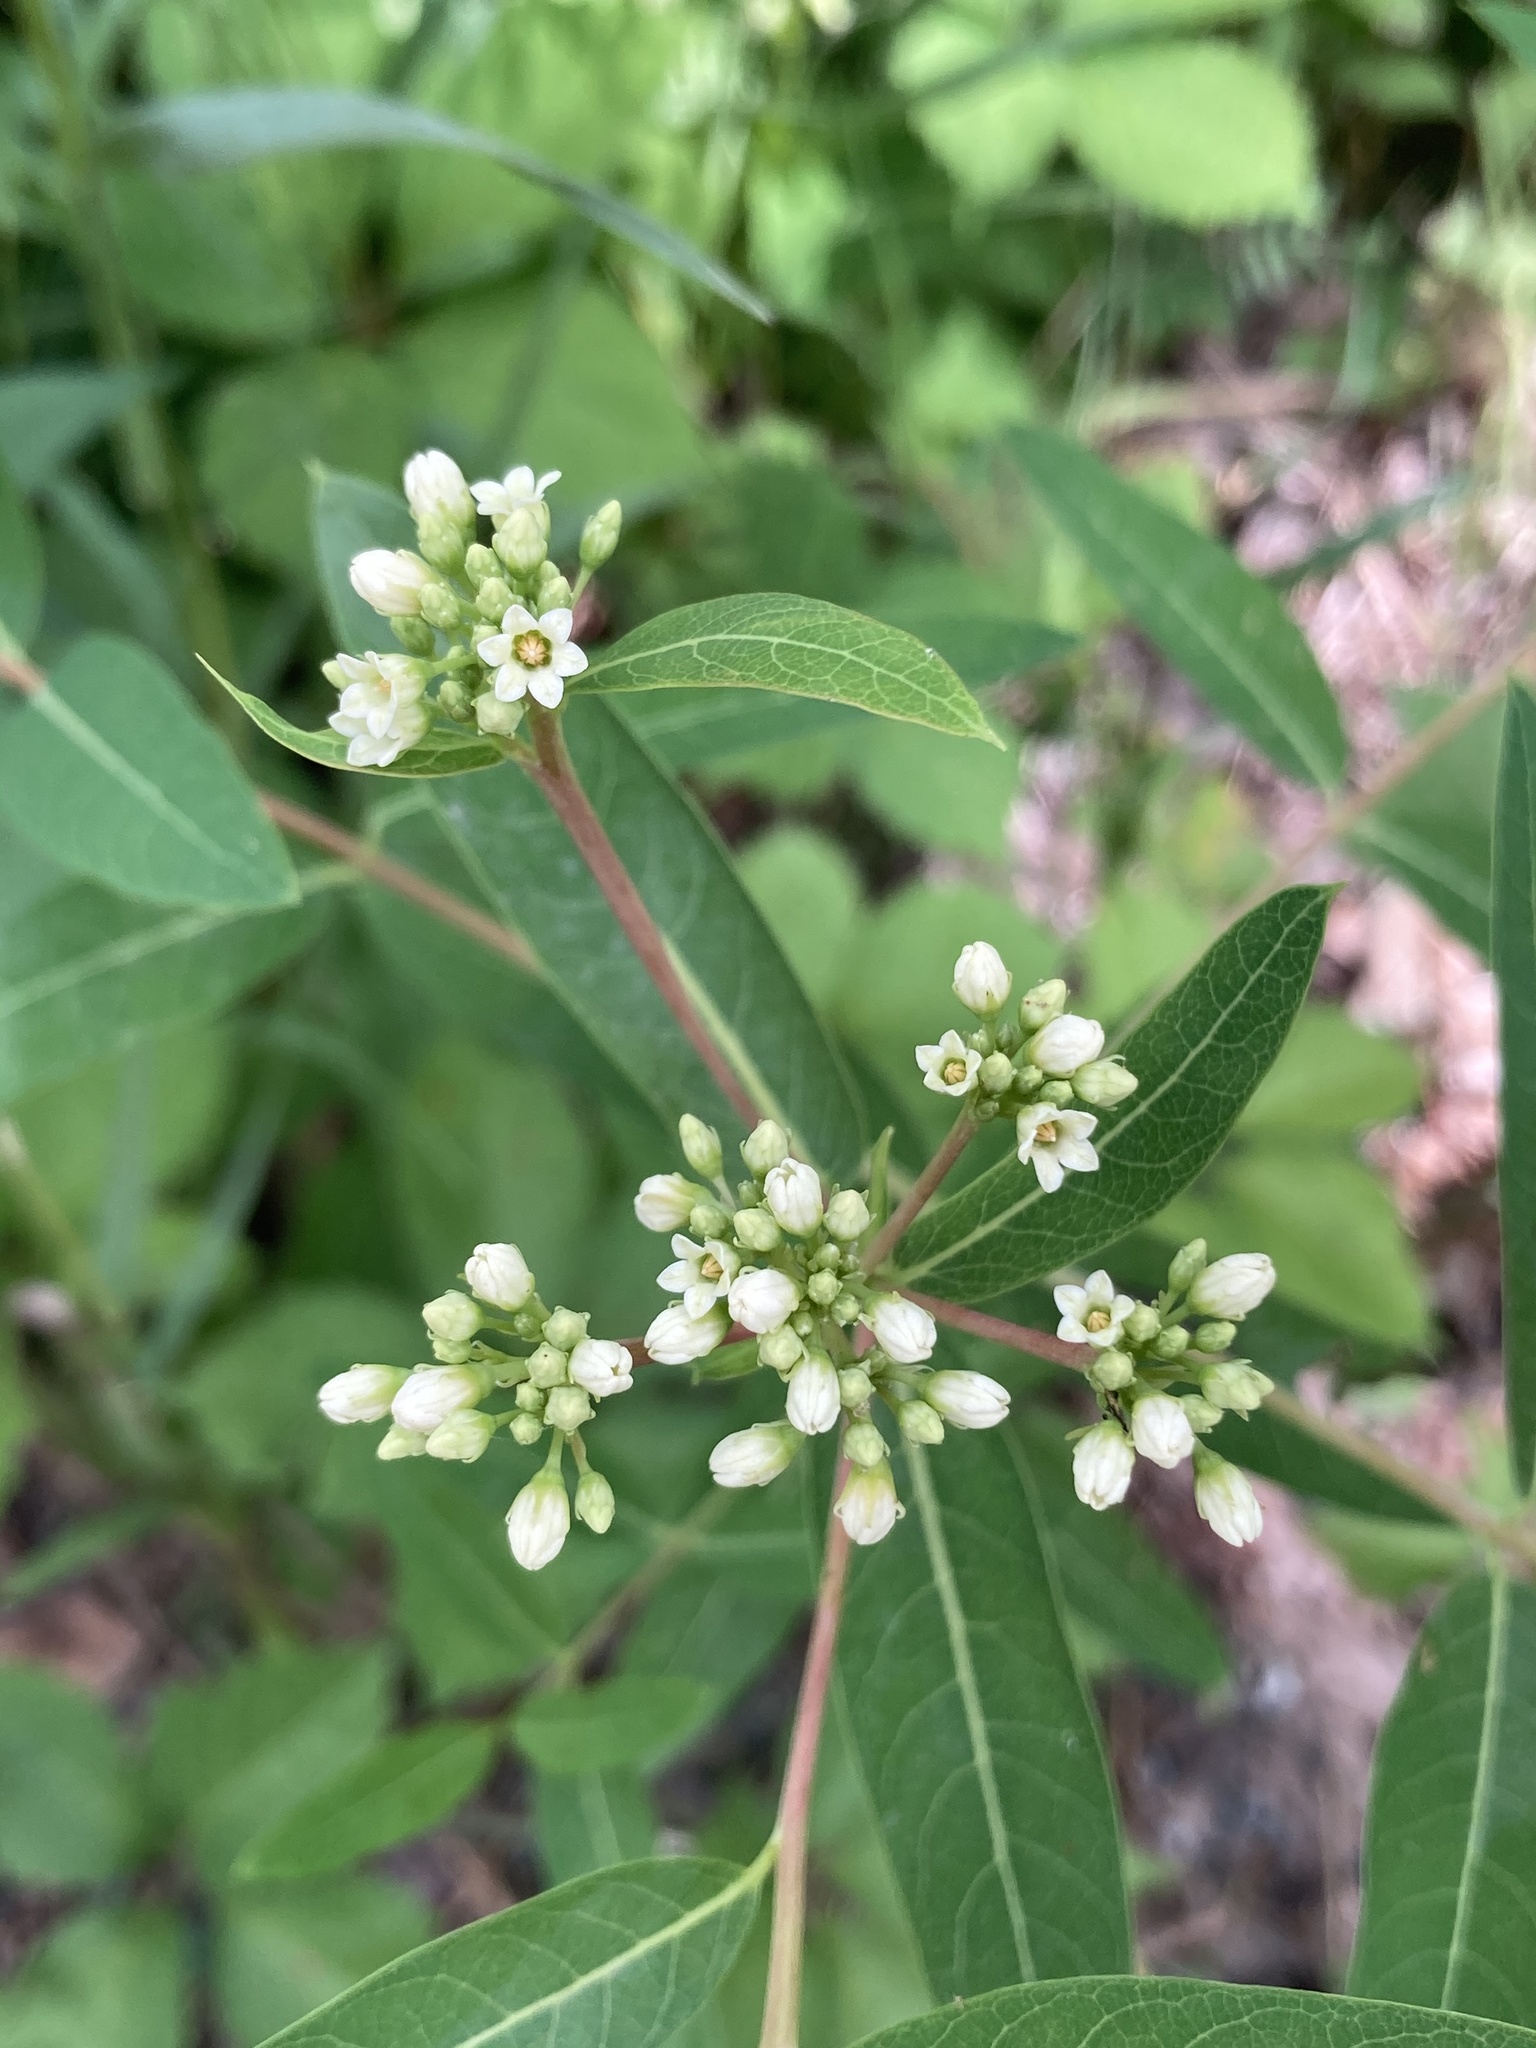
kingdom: Plantae
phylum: Tracheophyta
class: Magnoliopsida
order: Gentianales
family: Apocynaceae
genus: Apocynum
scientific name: Apocynum cannabinum
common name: Hemp dogbane
